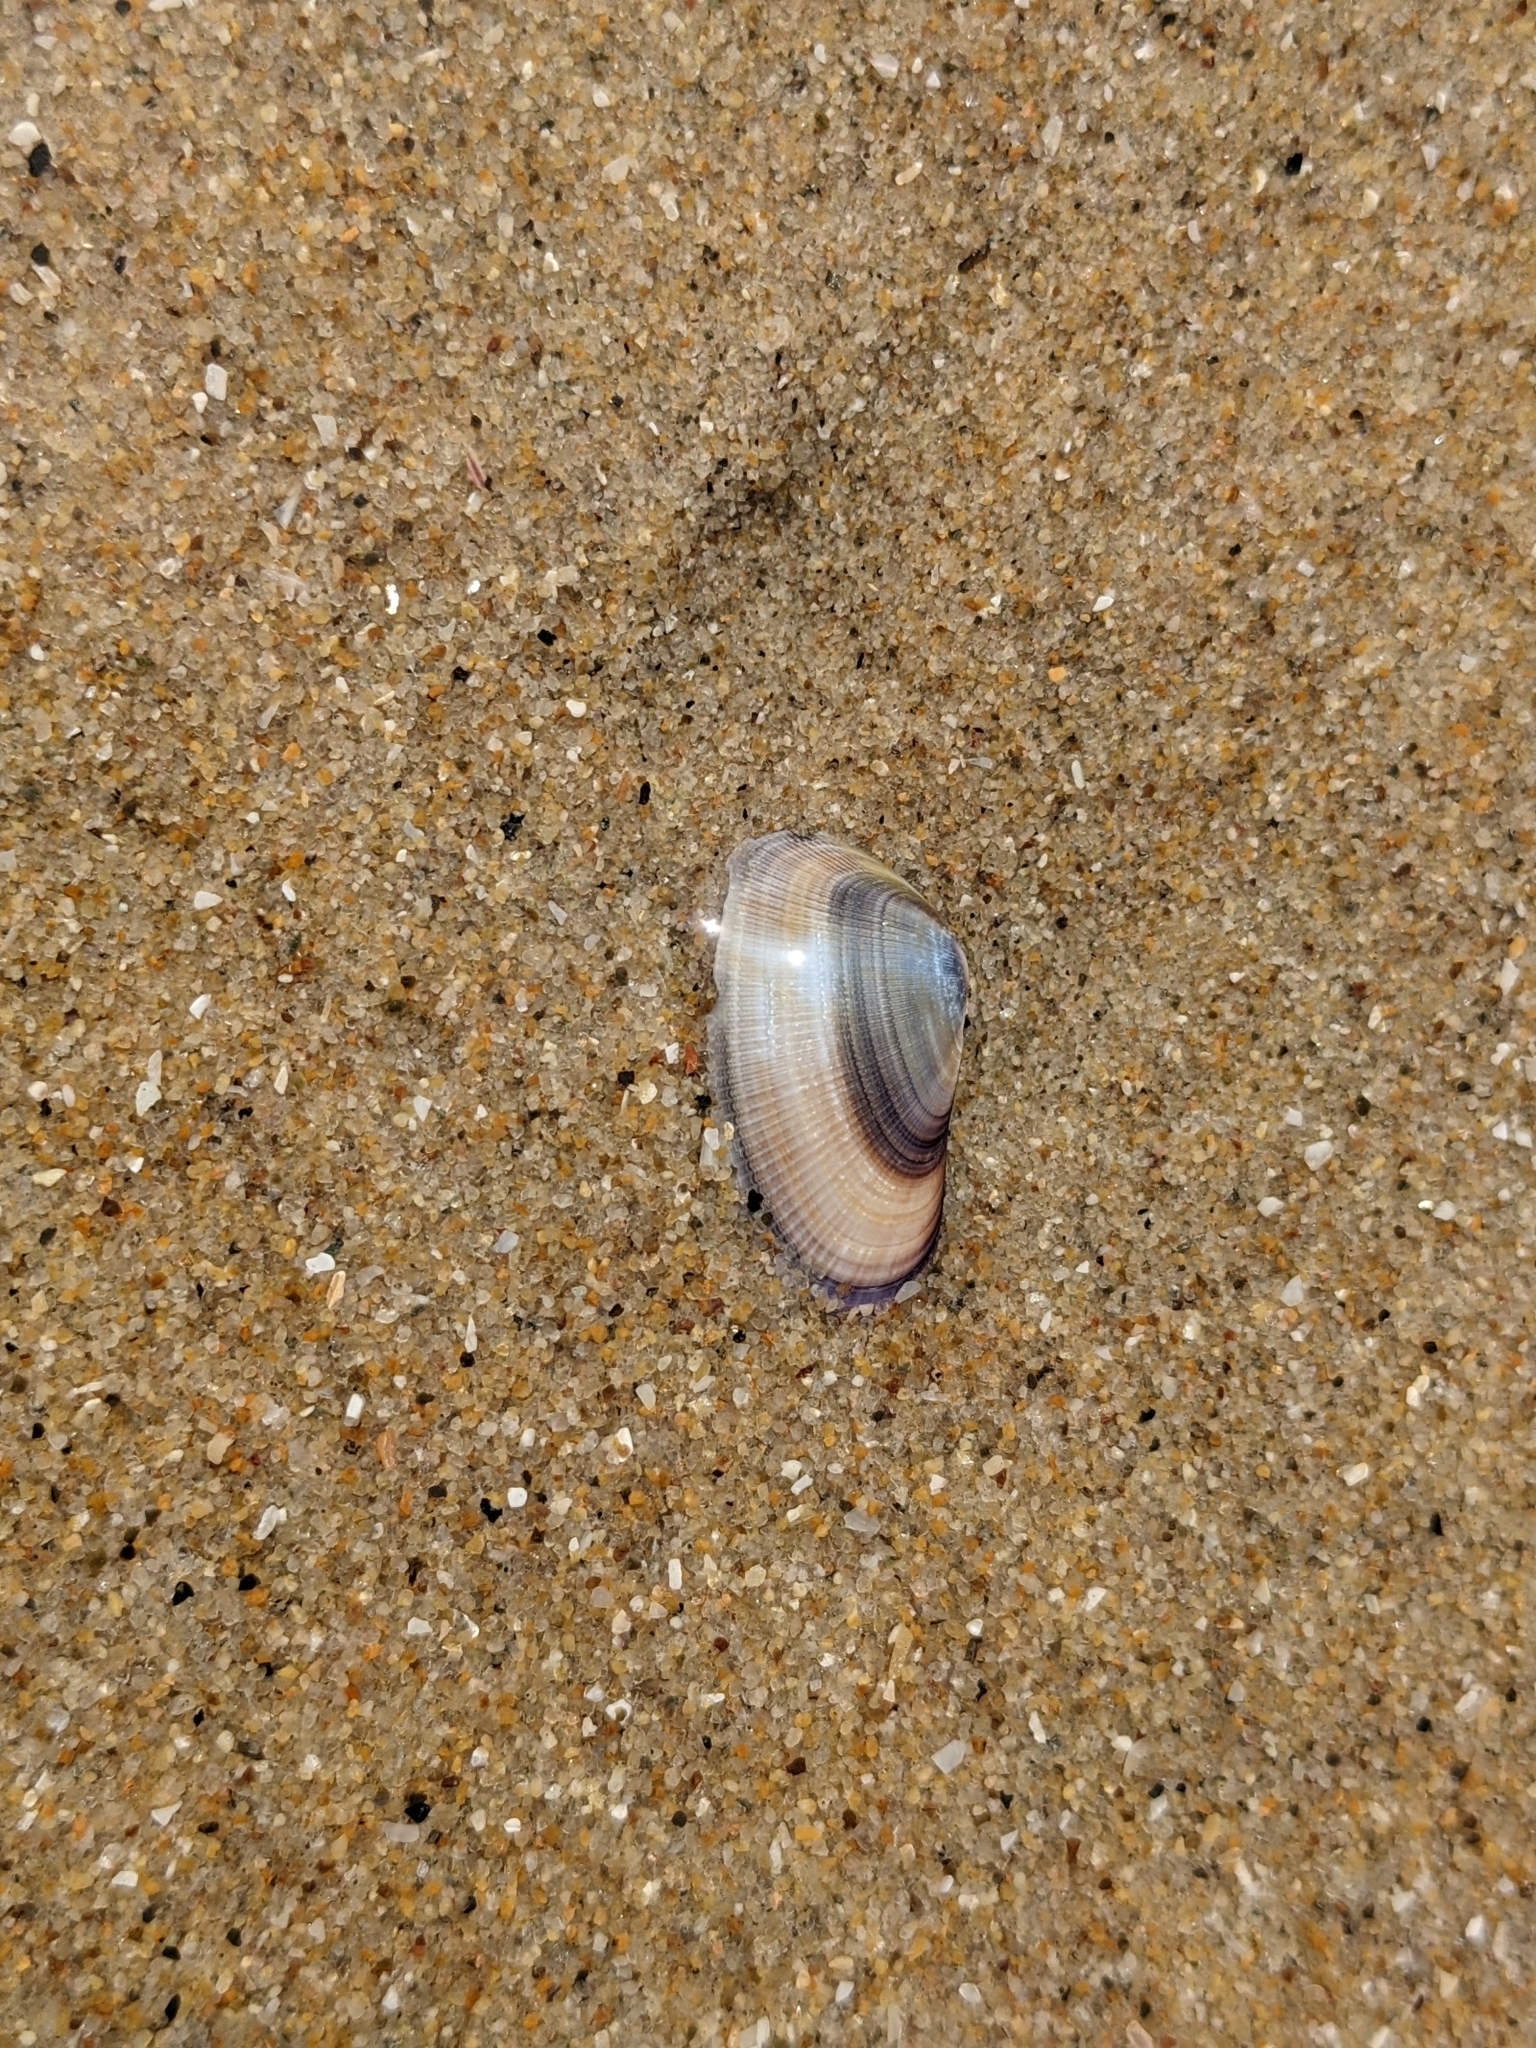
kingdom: Animalia
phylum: Mollusca
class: Bivalvia
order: Cardiida
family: Donacidae
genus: Donax
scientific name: Donax gouldii
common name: Gould beanclam
